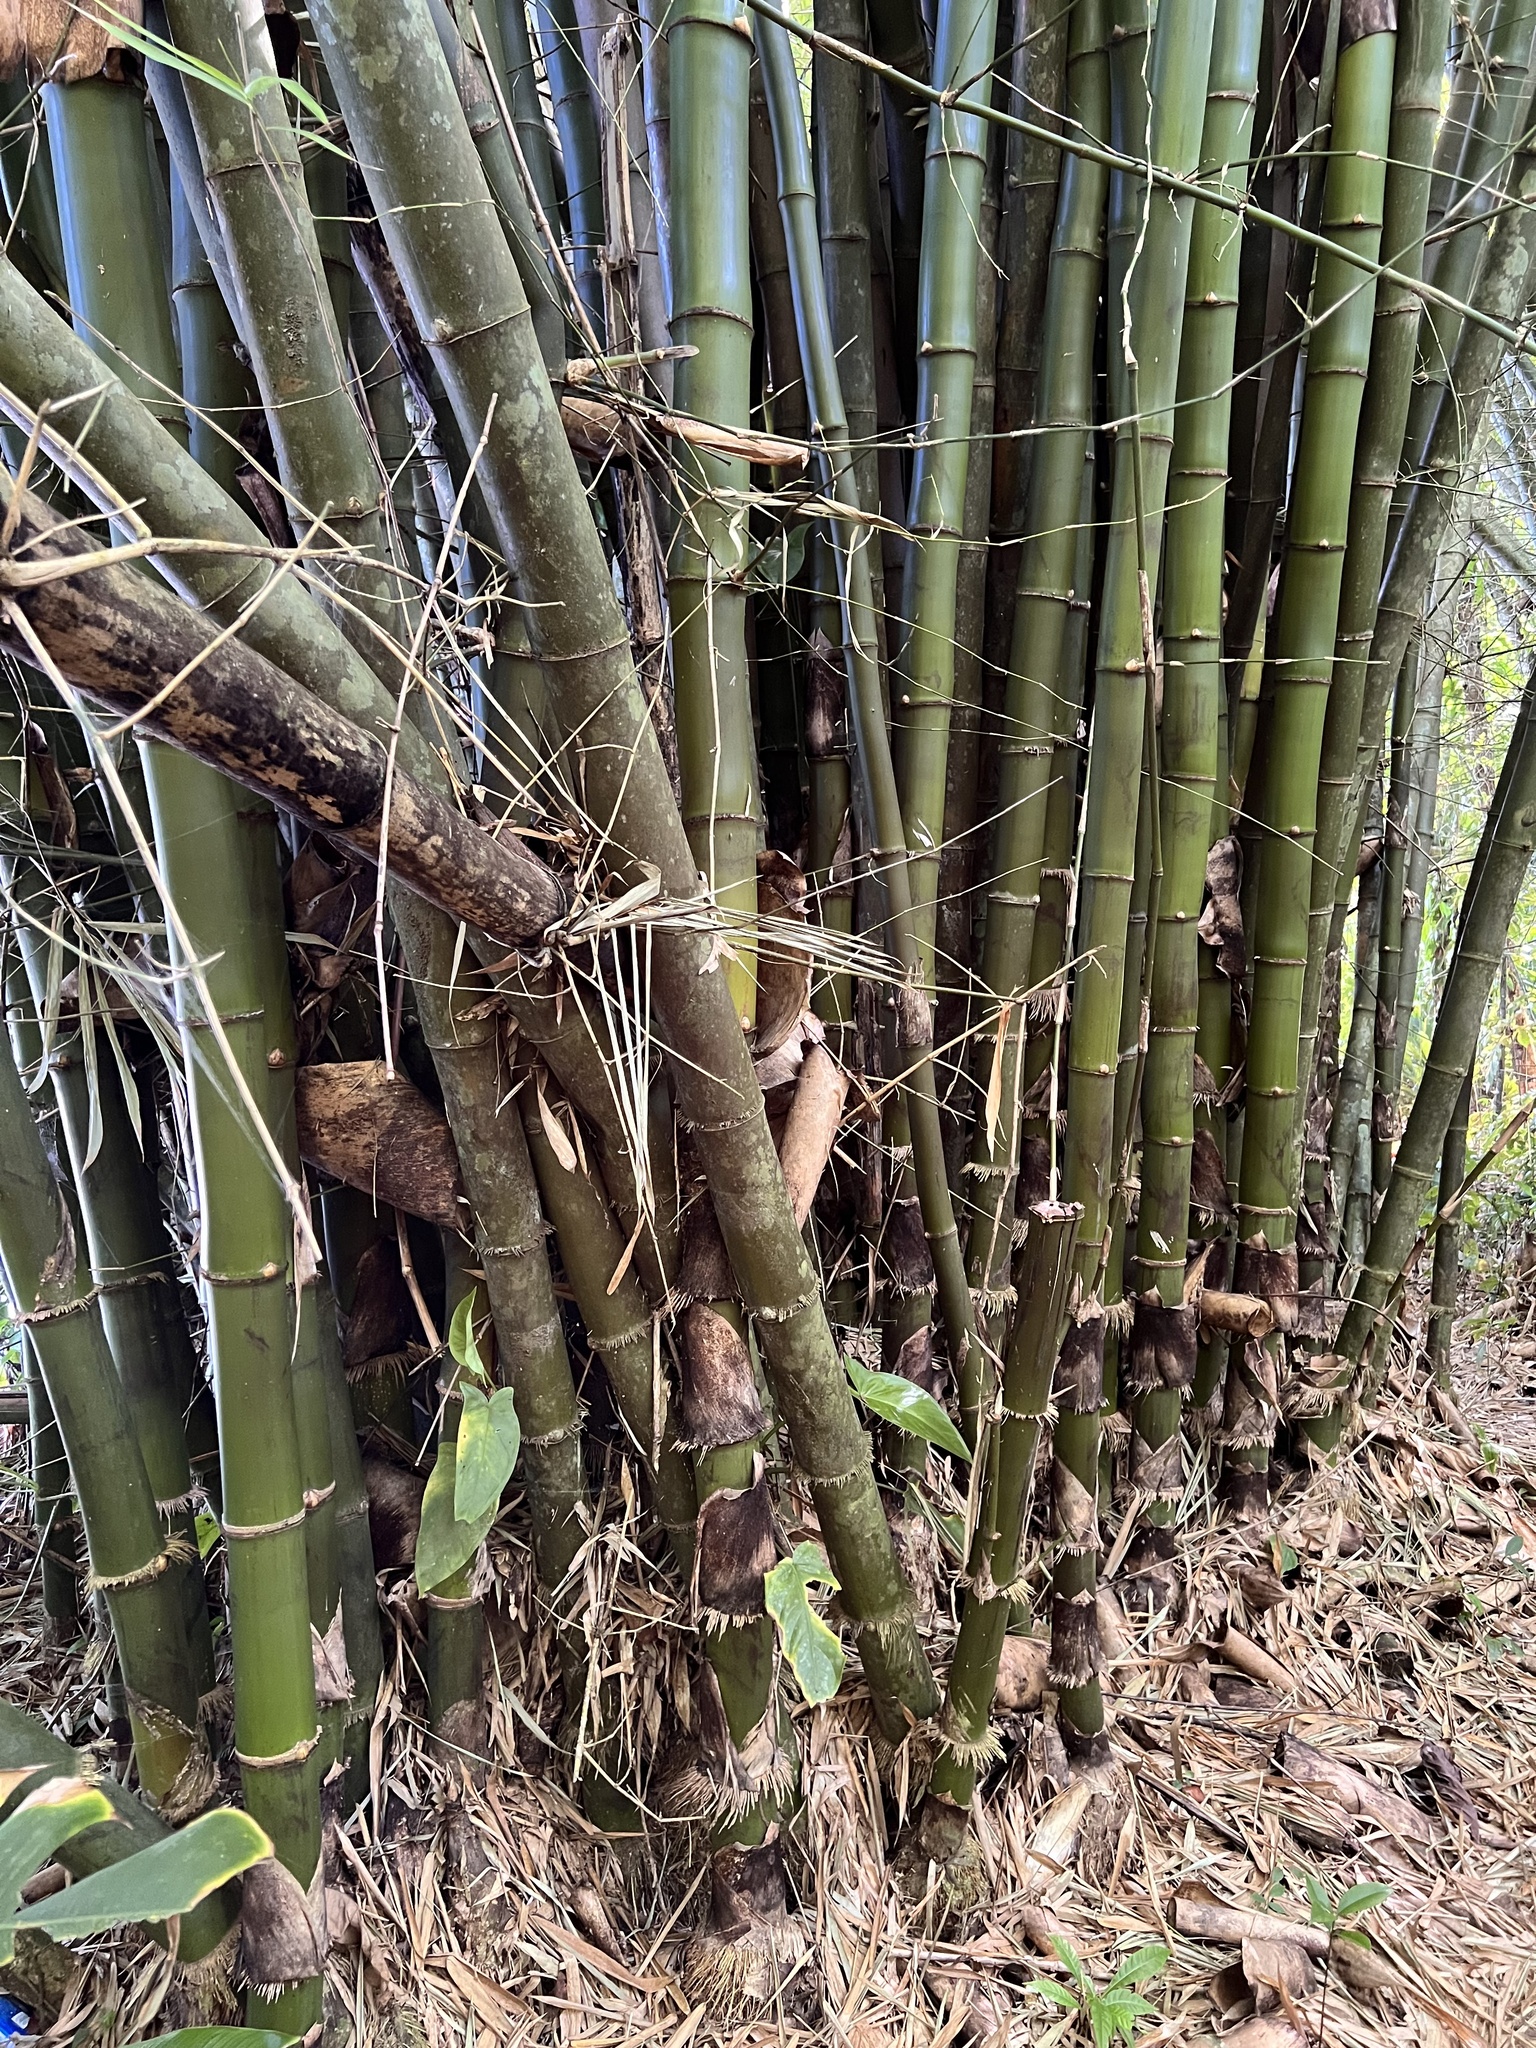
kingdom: Plantae
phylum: Tracheophyta
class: Liliopsida
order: Poales
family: Poaceae
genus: Bambusa
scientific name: Bambusa vulgaris
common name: Common bamboo
